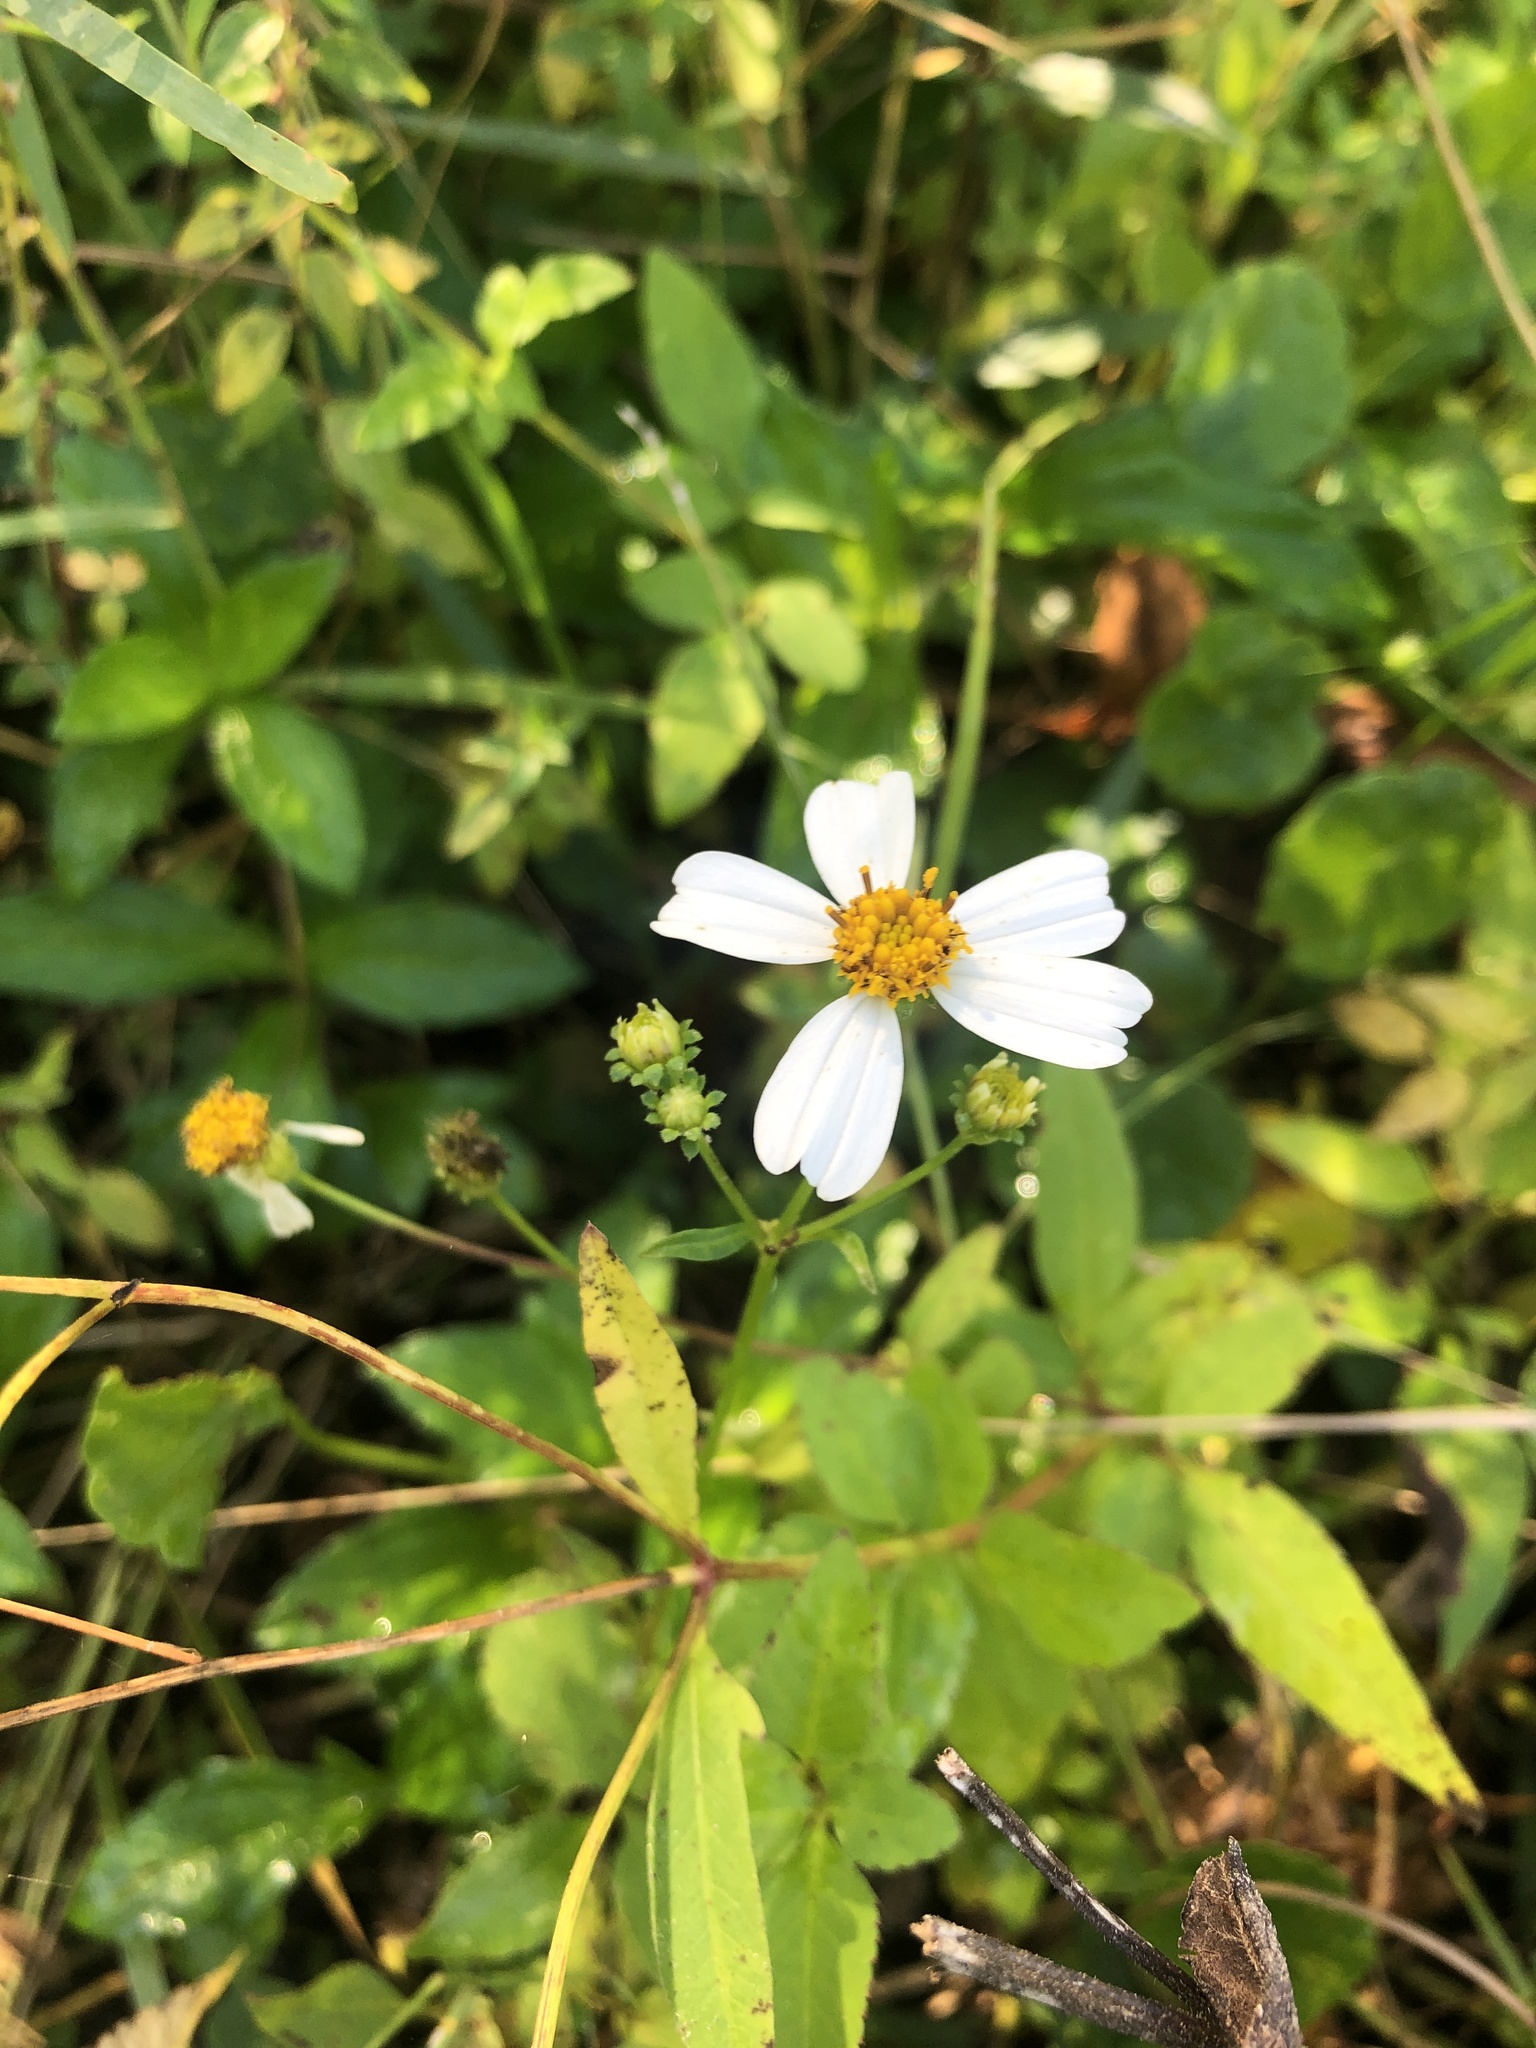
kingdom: Plantae
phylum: Tracheophyta
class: Magnoliopsida
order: Asterales
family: Asteraceae
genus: Bidens
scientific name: Bidens alba
